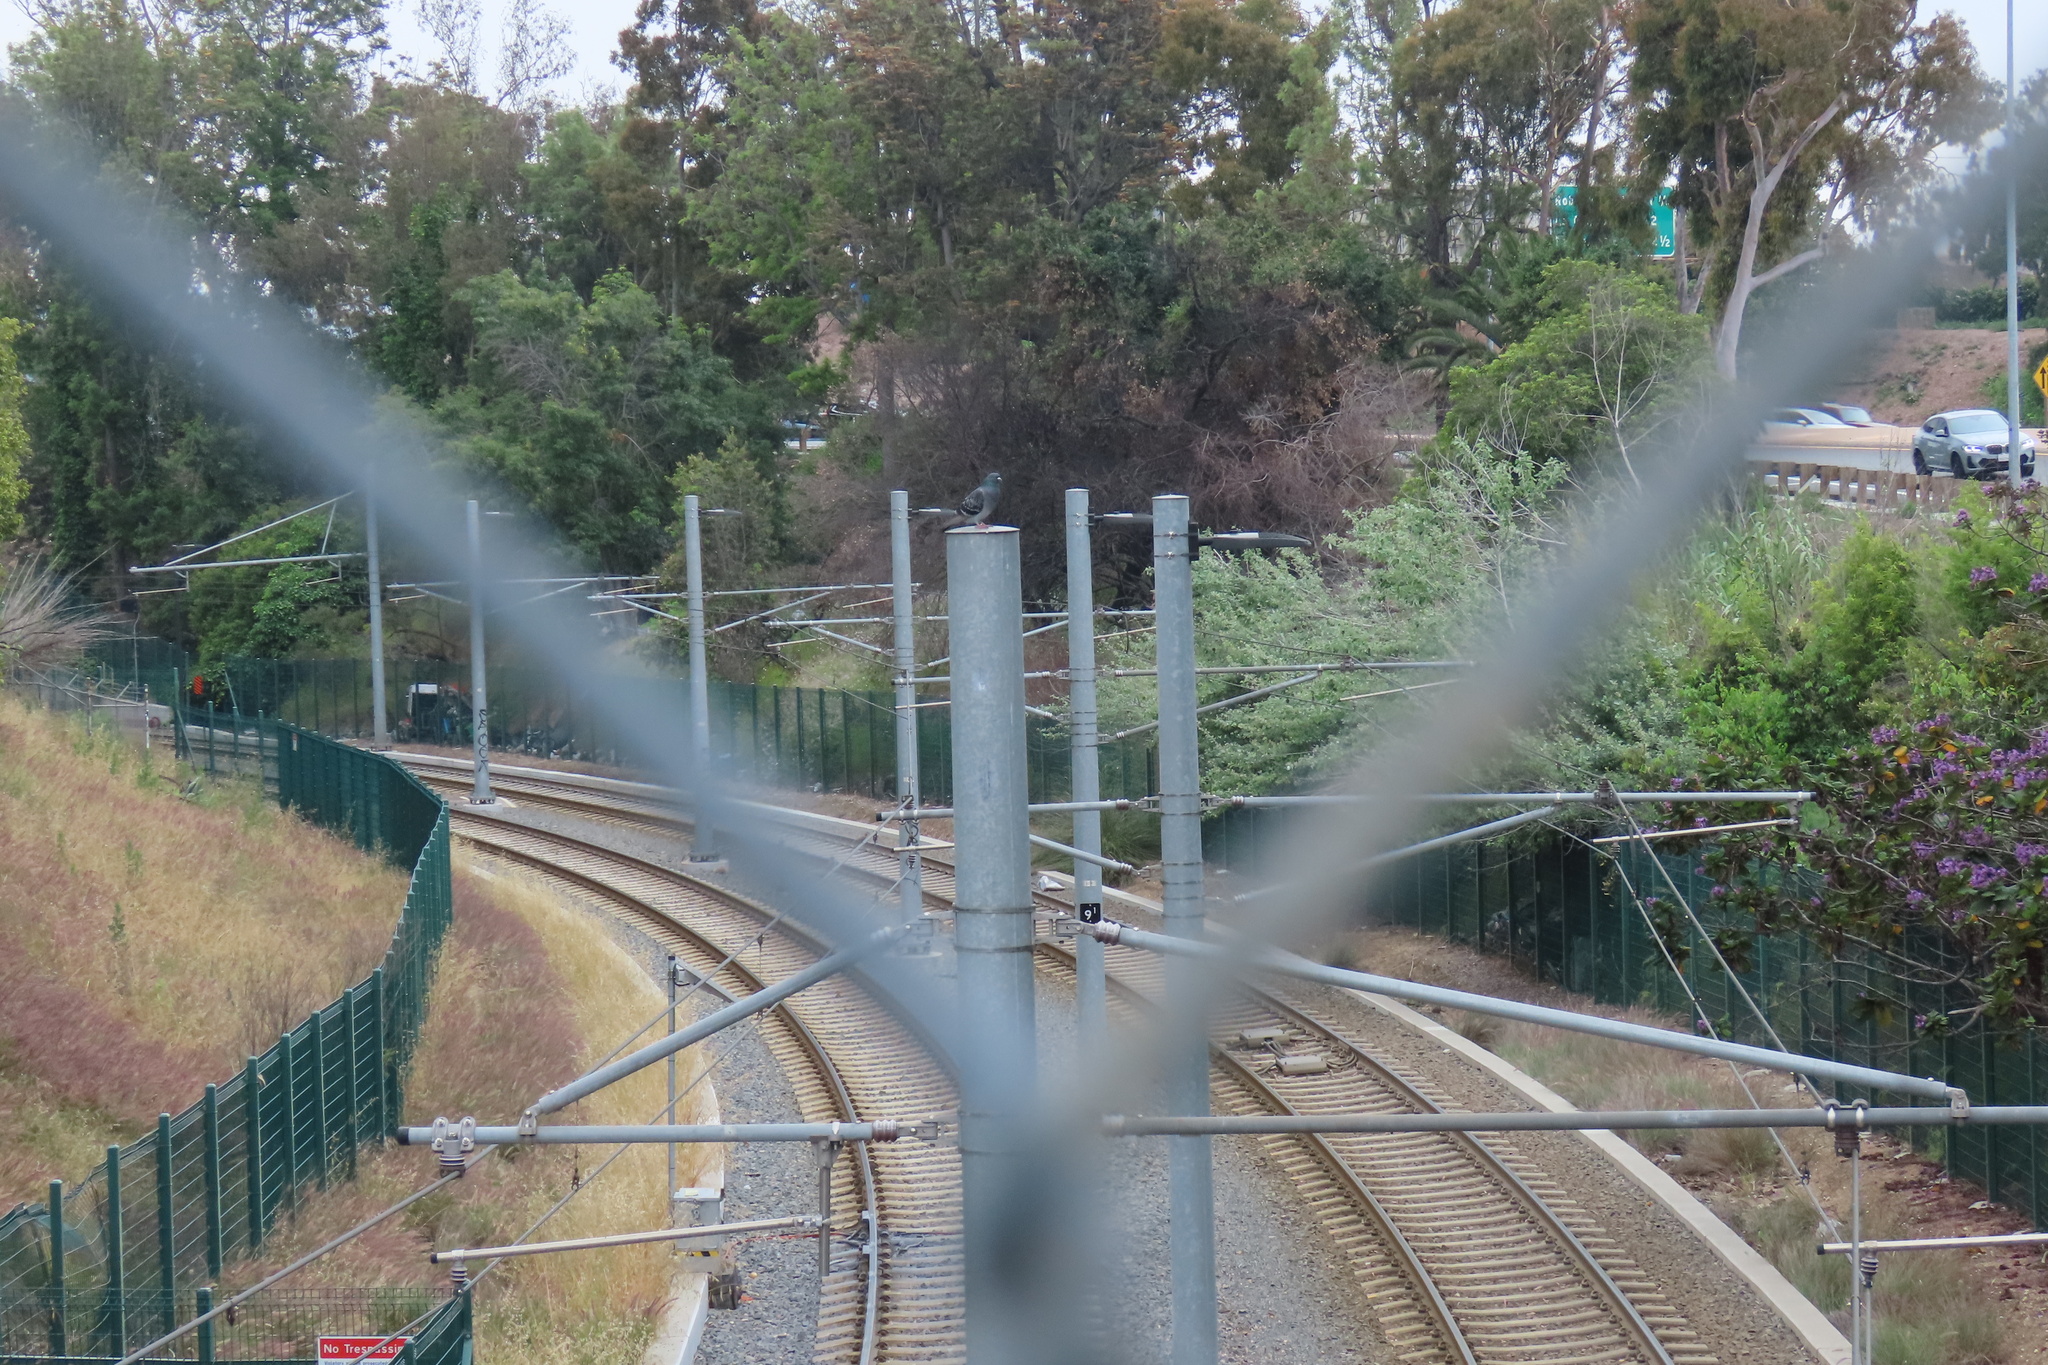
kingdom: Animalia
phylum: Chordata
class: Aves
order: Columbiformes
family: Columbidae
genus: Columba
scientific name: Columba livia
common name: Rock pigeon
